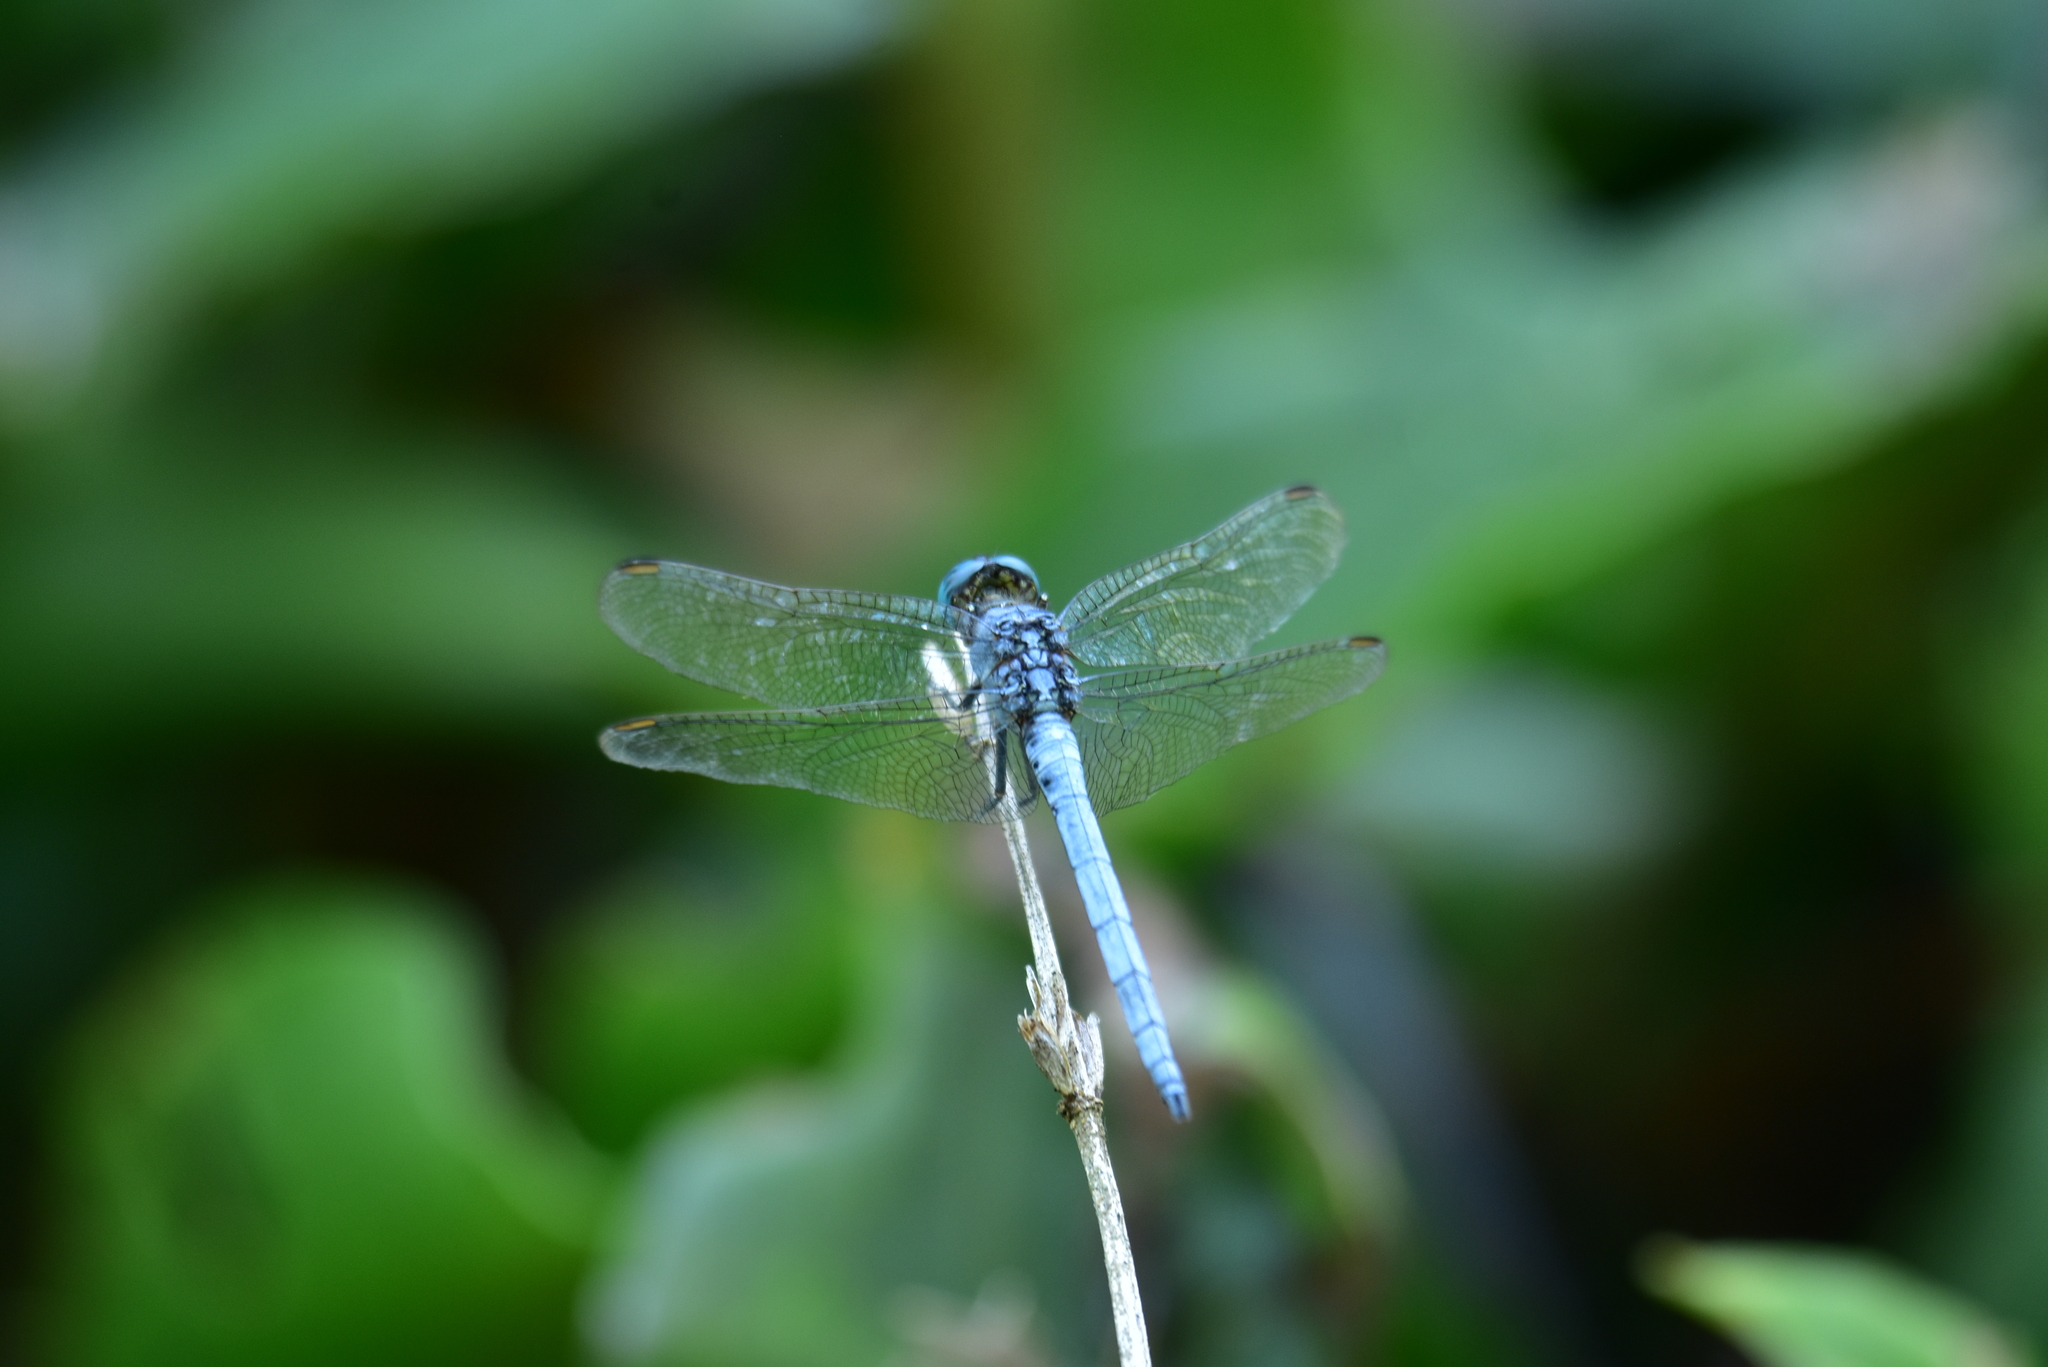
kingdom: Animalia
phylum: Arthropoda
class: Insecta
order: Odonata
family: Libellulidae
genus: Orthetrum
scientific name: Orthetrum luzonicum
